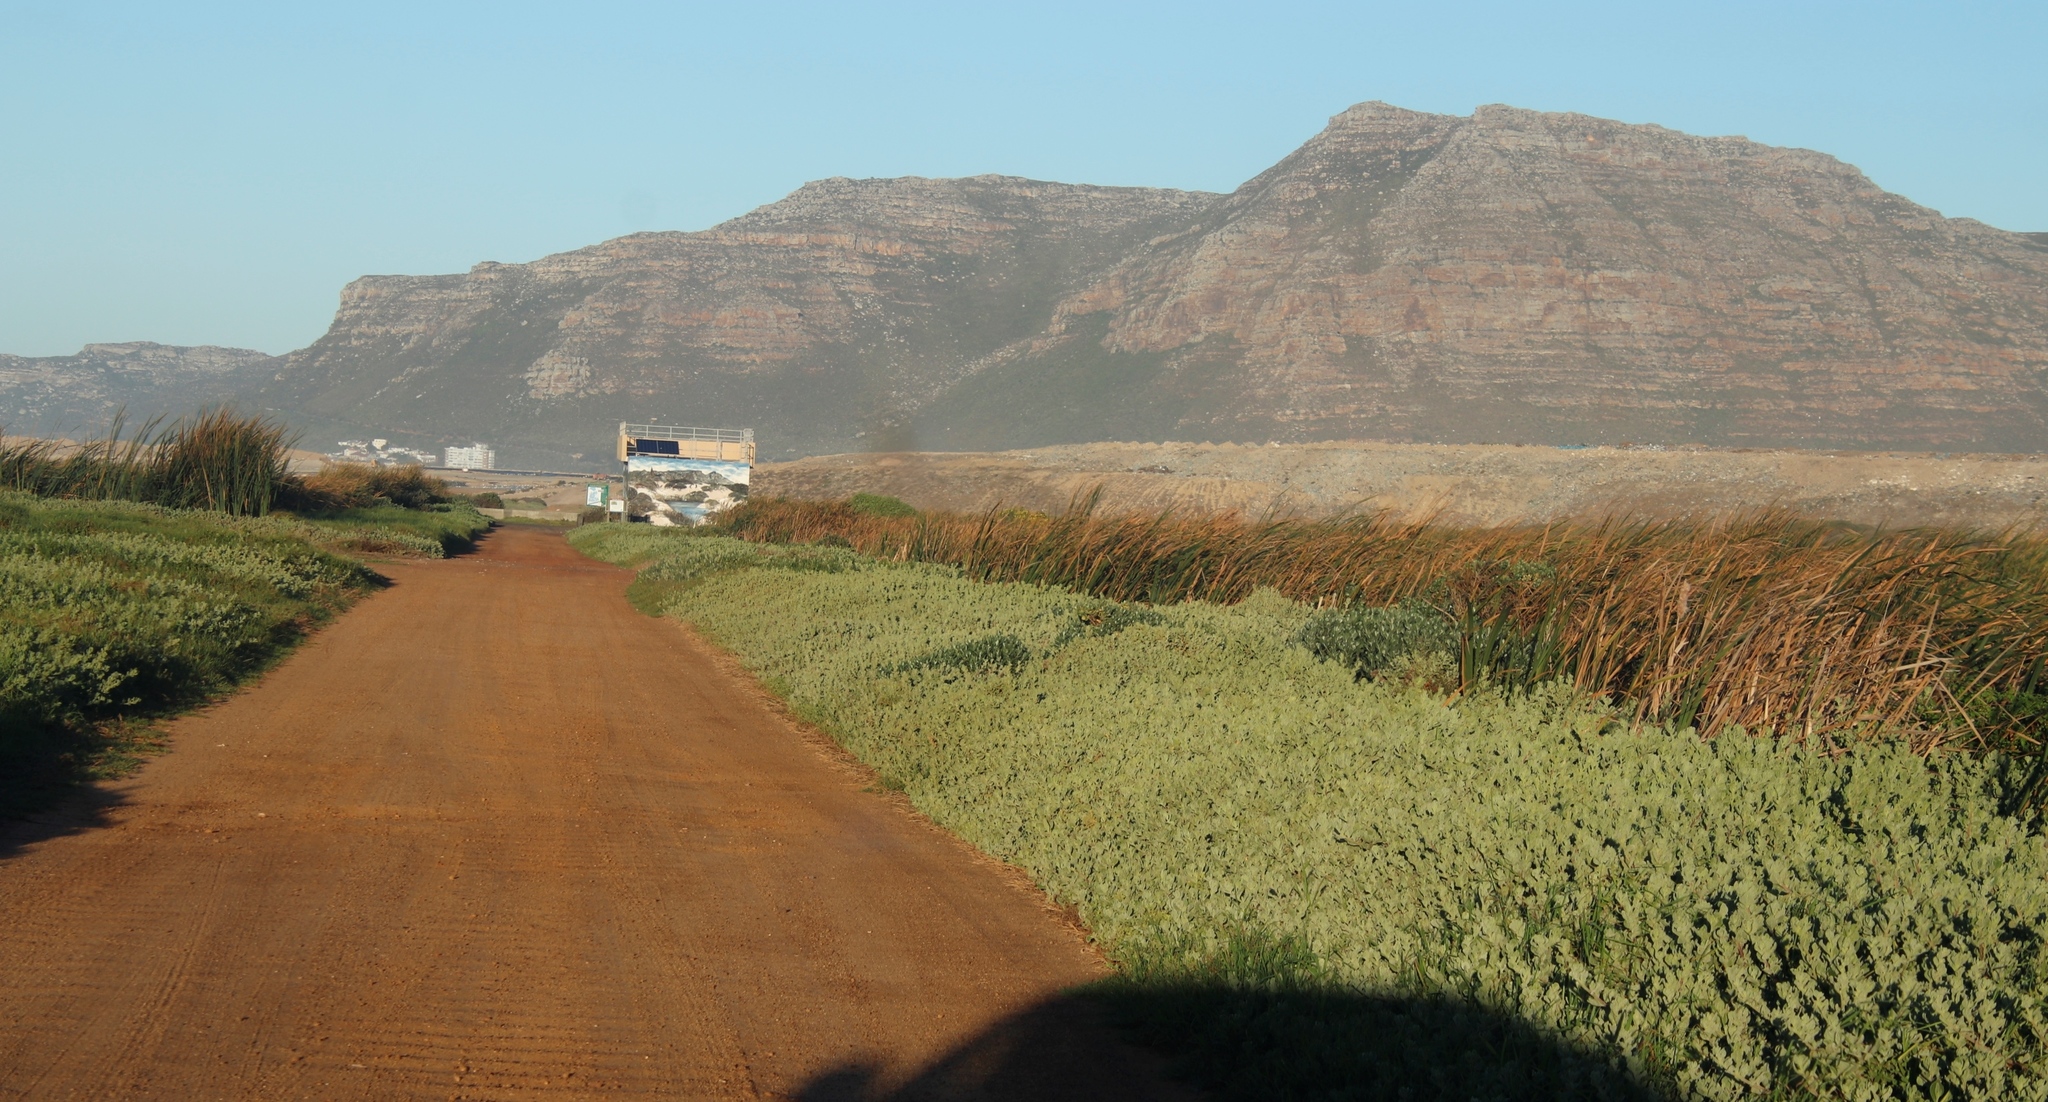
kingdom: Plantae
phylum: Tracheophyta
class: Magnoliopsida
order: Caryophyllales
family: Aizoaceae
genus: Tetragonia
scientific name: Tetragonia decumbens
